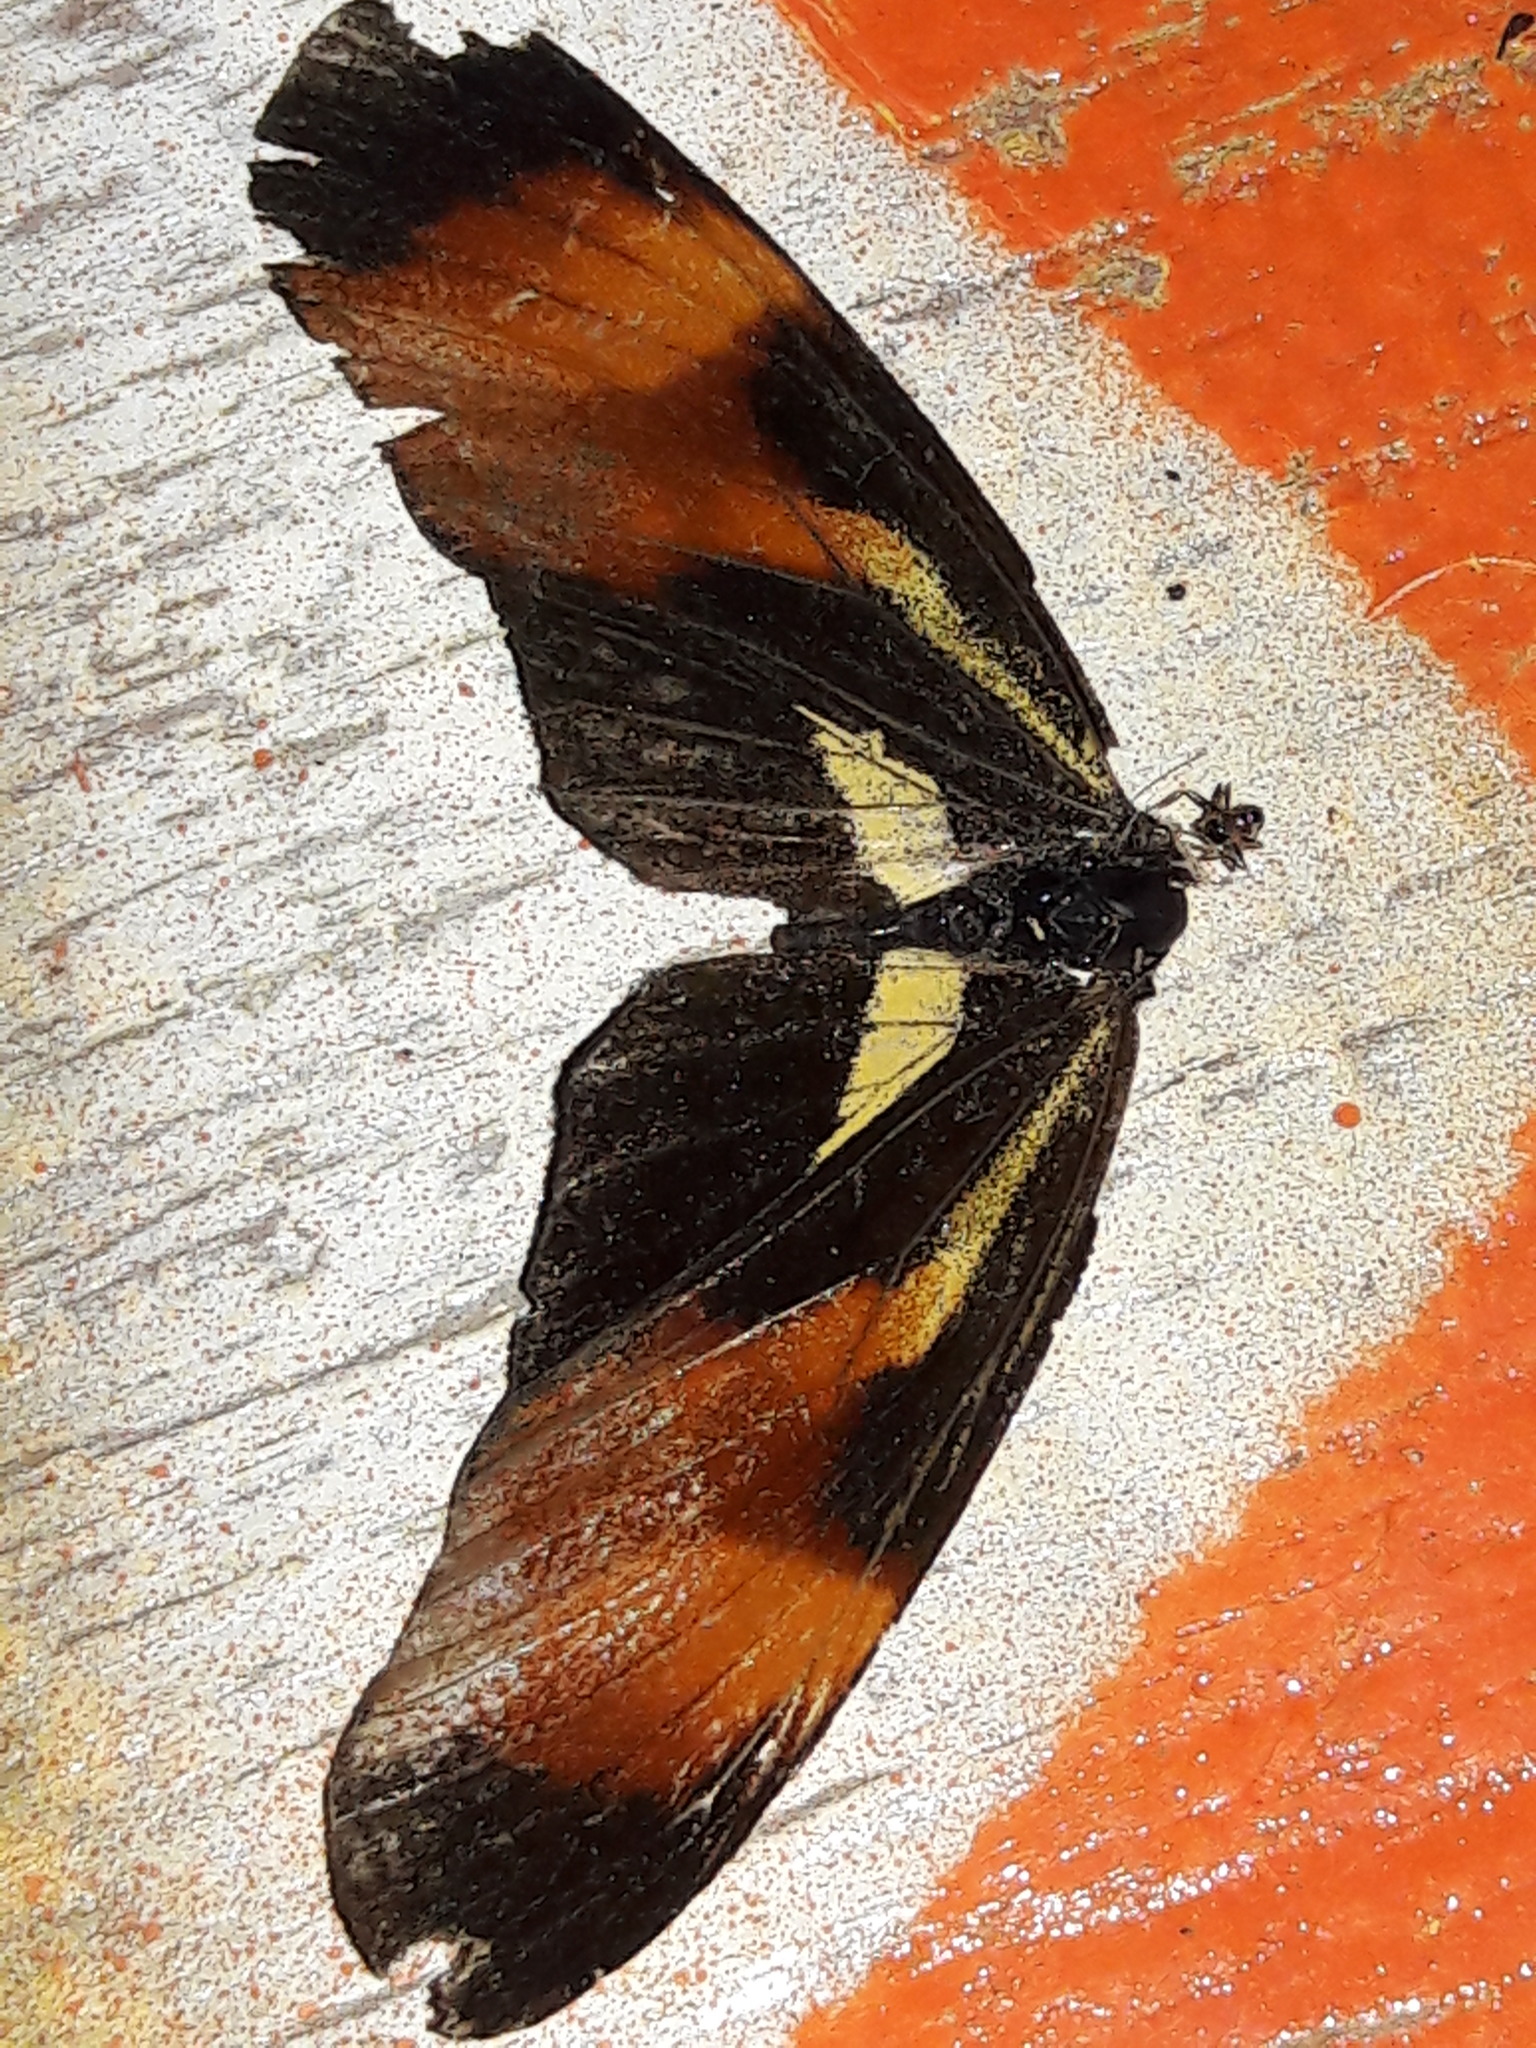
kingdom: Animalia
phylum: Arthropoda
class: Insecta
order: Lepidoptera
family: Nymphalidae
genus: Eresia
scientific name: Eresia lansdorfi
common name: Lansdorf's crescent
